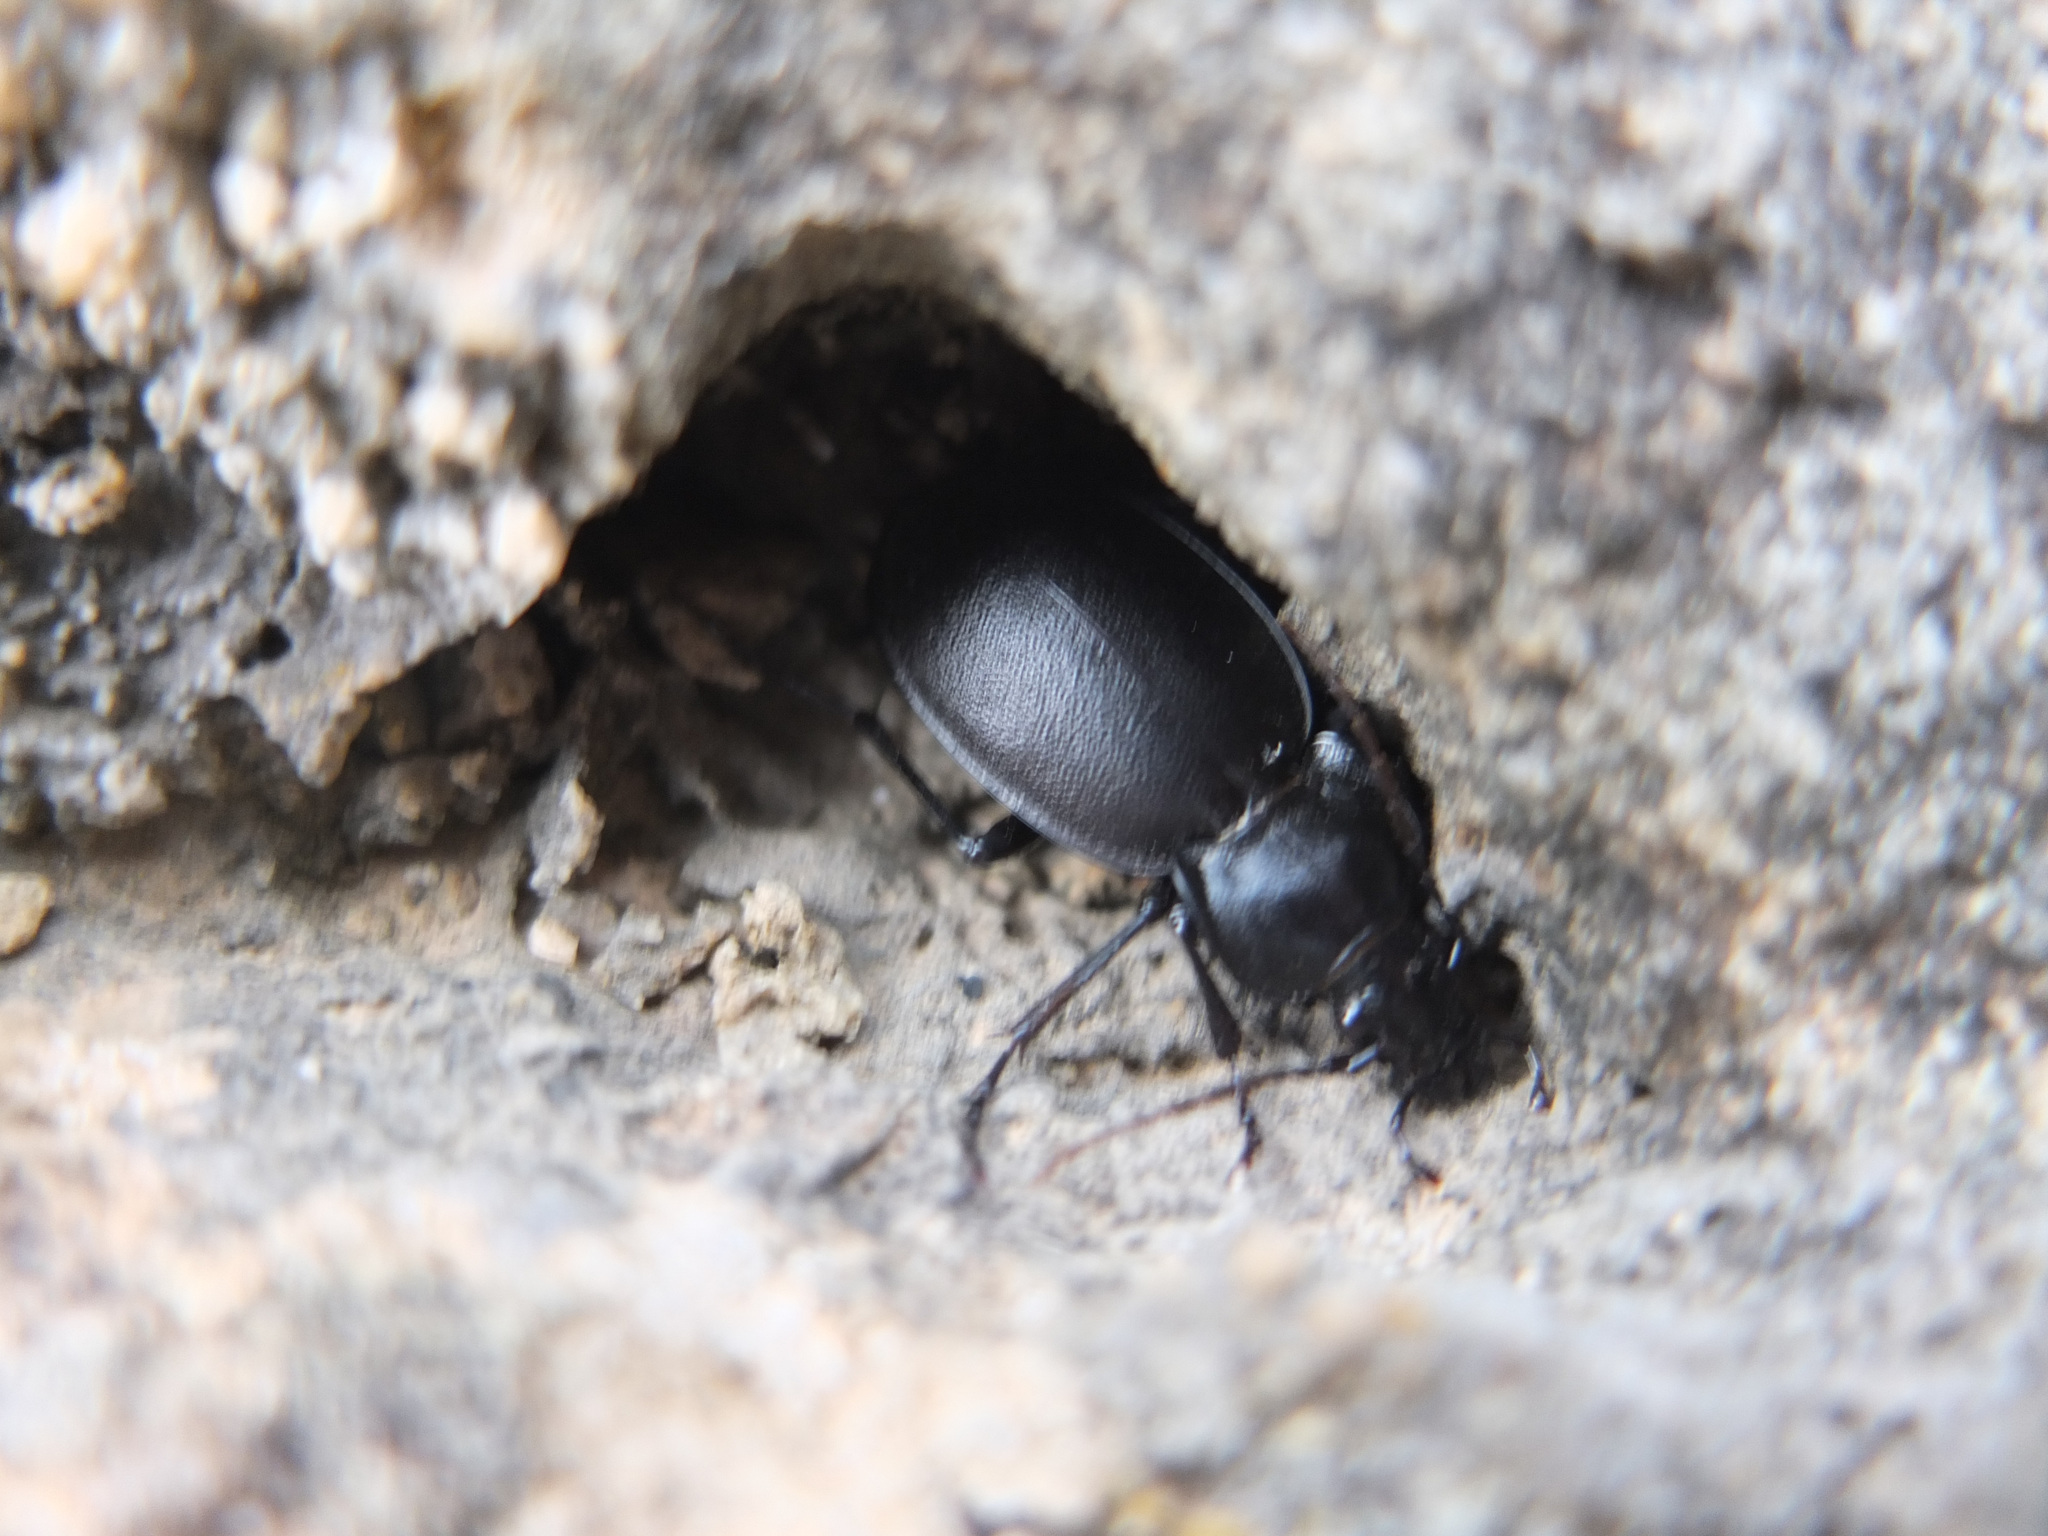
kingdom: Animalia
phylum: Arthropoda
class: Insecta
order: Coleoptera
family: Carabidae
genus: Carabus
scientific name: Carabus banonii
